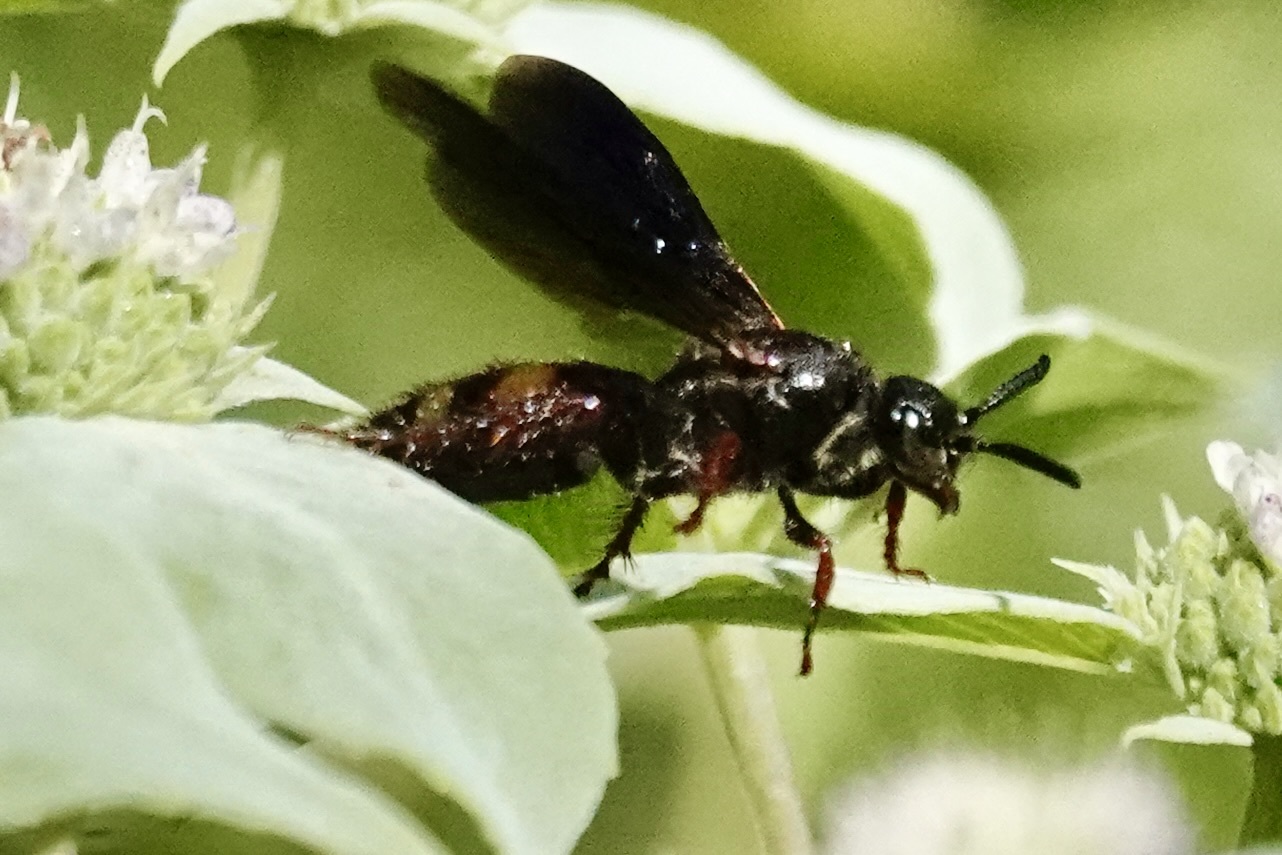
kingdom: Animalia
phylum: Arthropoda
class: Insecta
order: Hymenoptera
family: Scoliidae
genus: Scolia
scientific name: Scolia nobilitata
